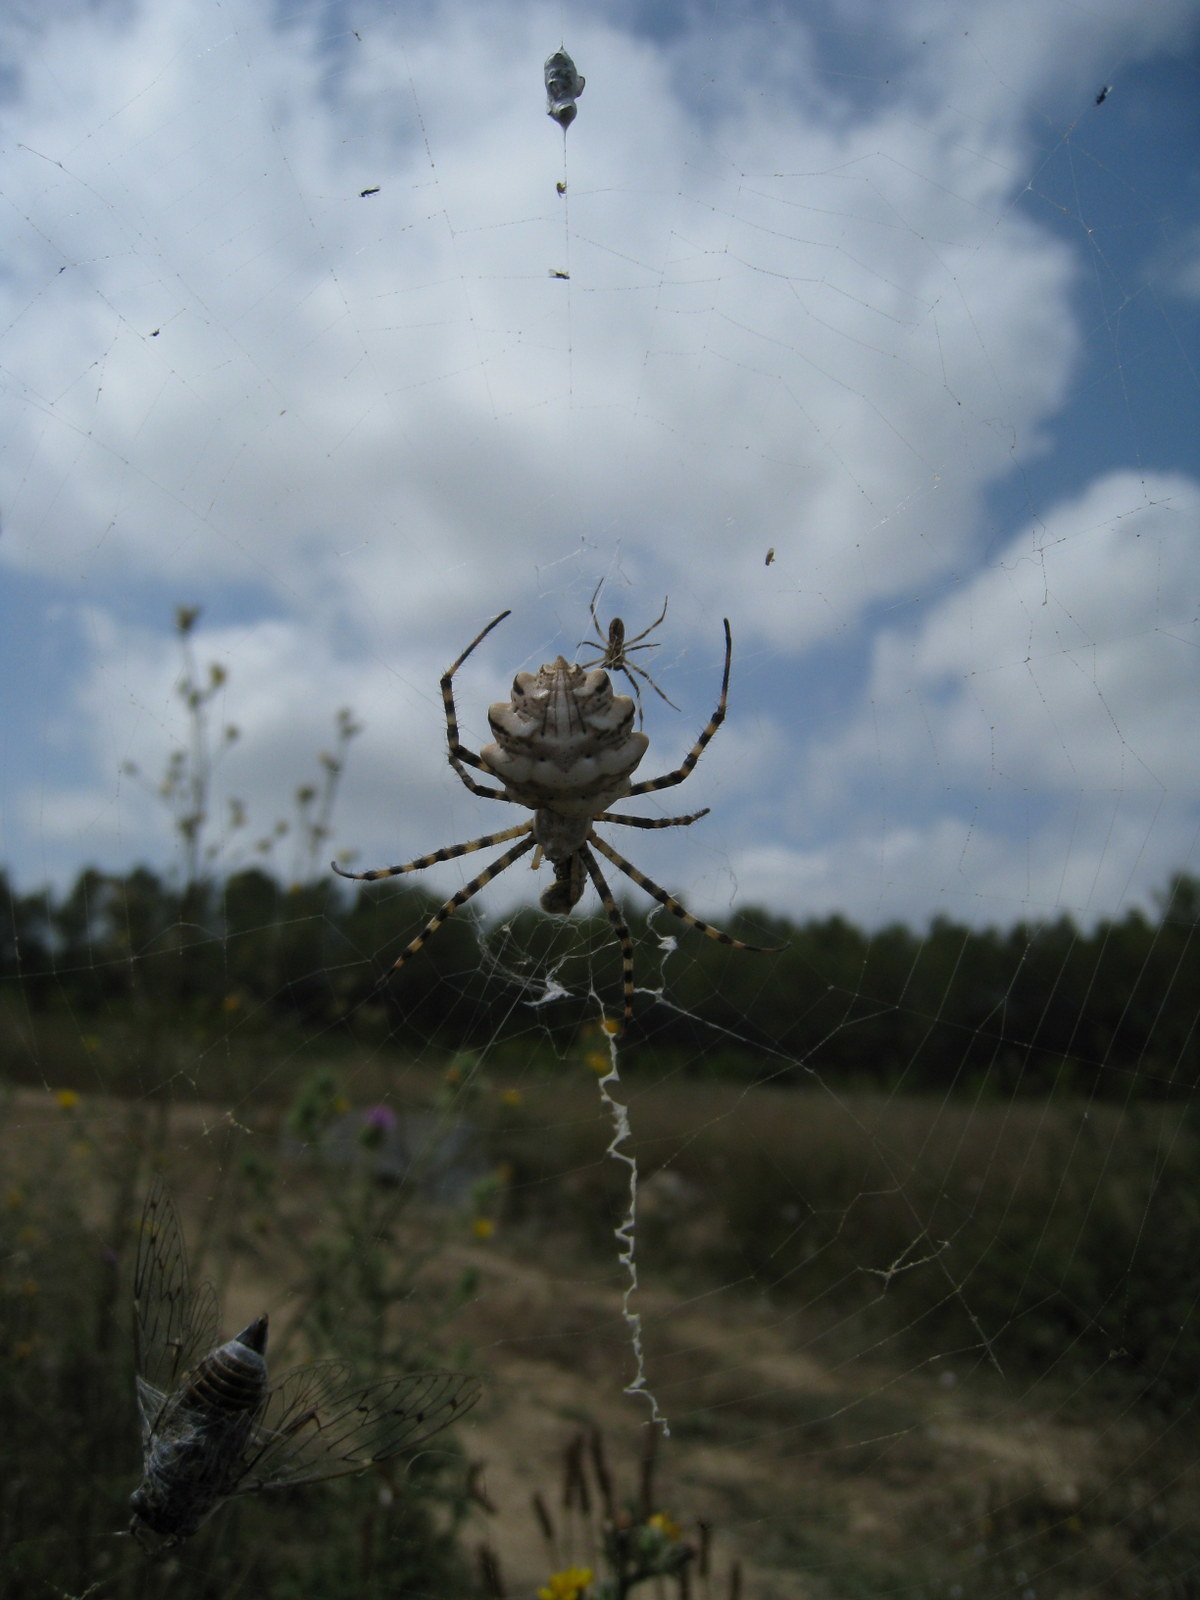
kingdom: Animalia
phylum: Arthropoda
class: Arachnida
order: Araneae
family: Araneidae
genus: Argiope
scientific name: Argiope lobata
